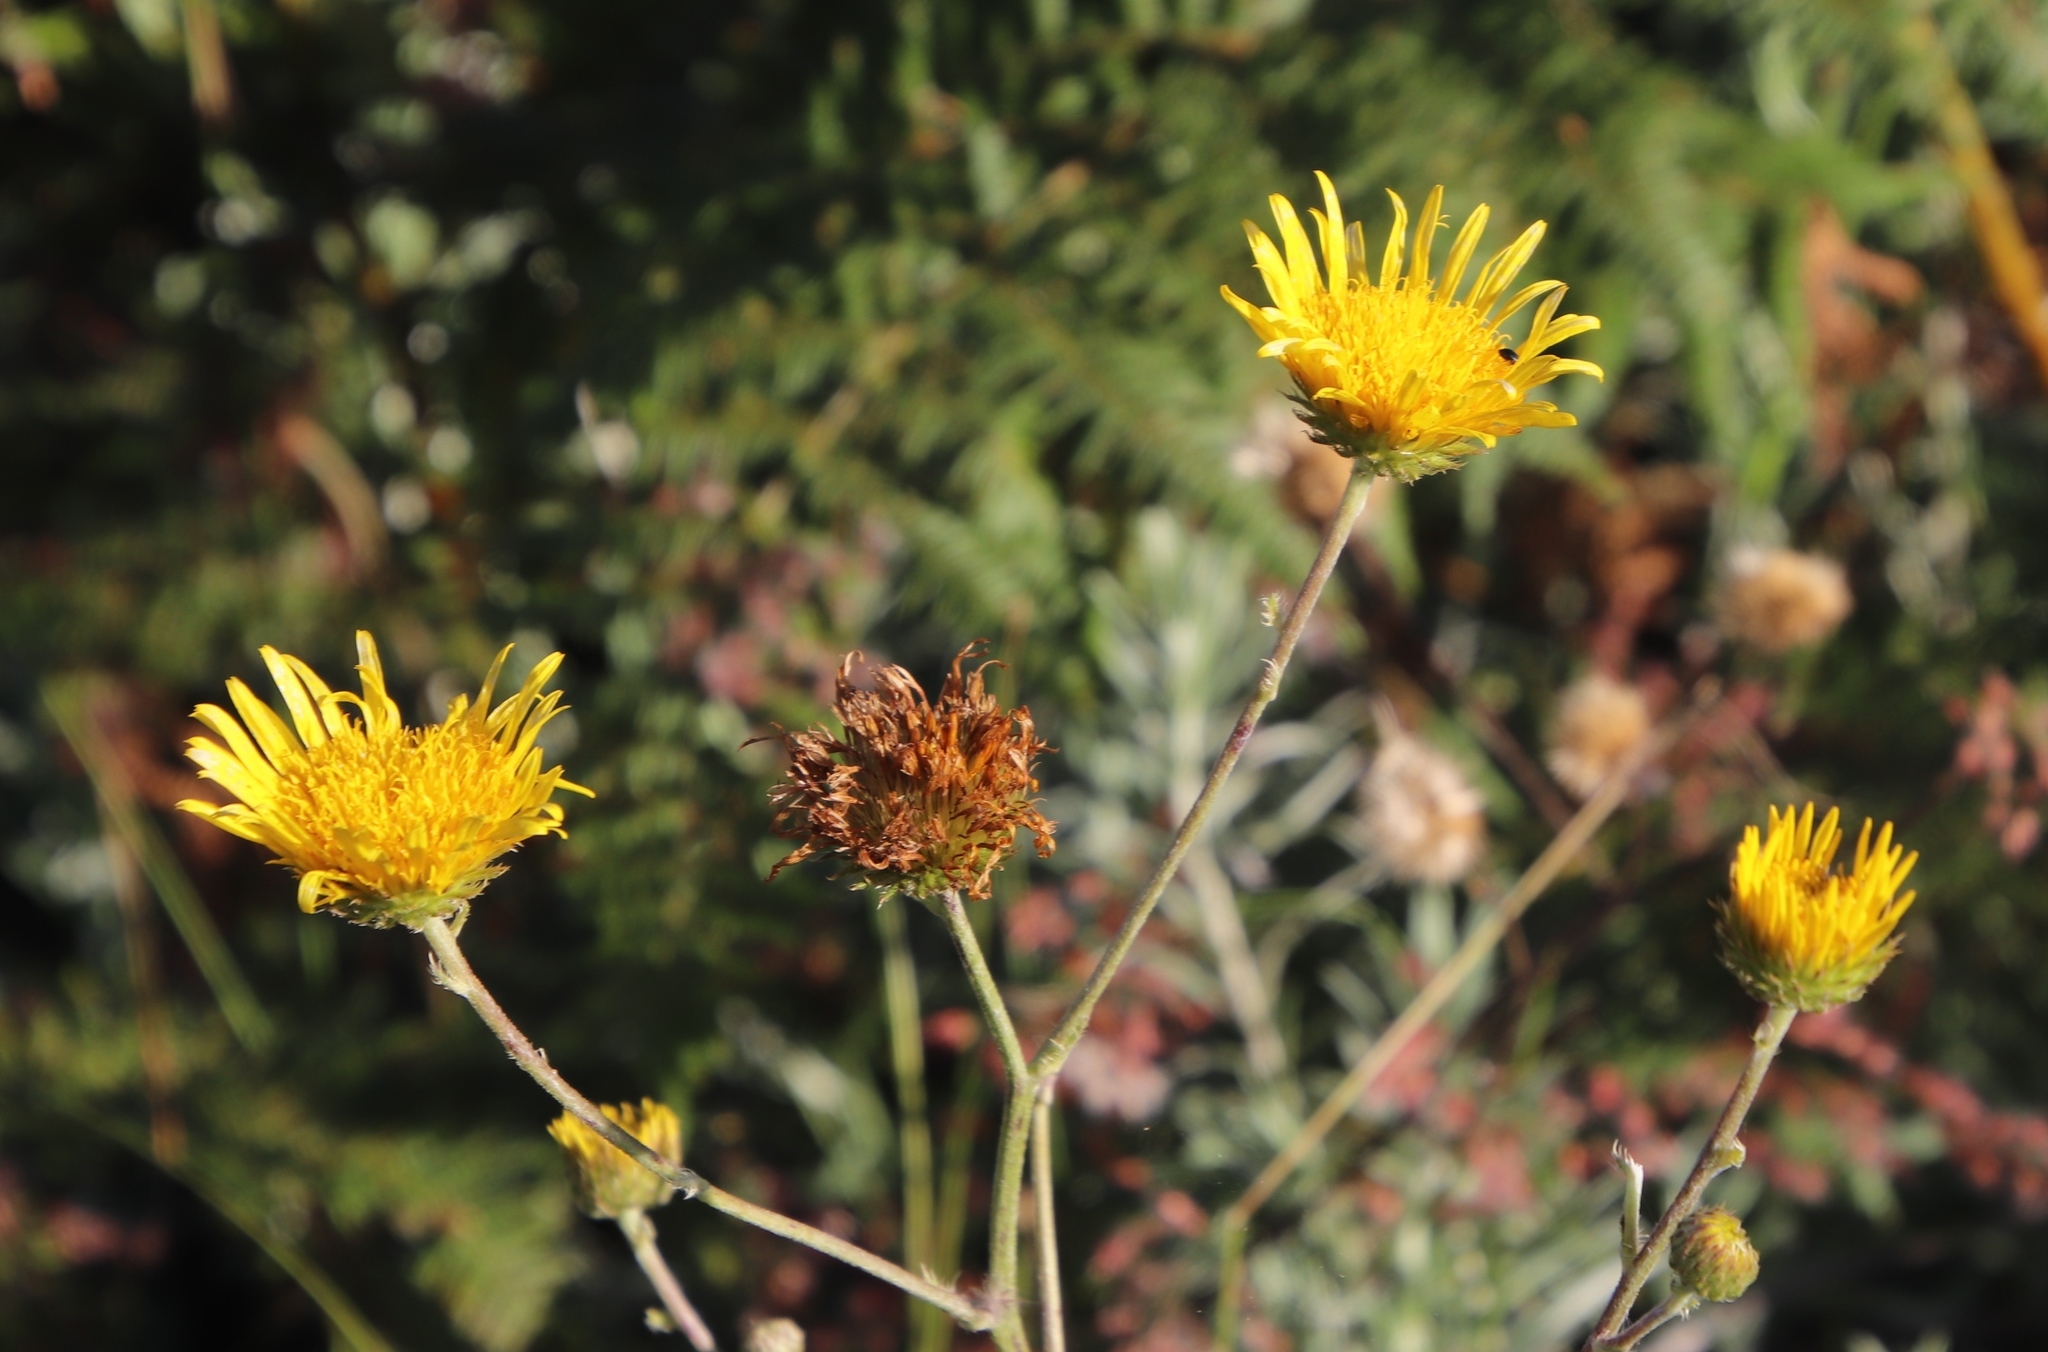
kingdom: Plantae
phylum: Tracheophyta
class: Magnoliopsida
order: Asterales
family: Asteraceae
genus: Berkheya
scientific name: Berkheya setifera
